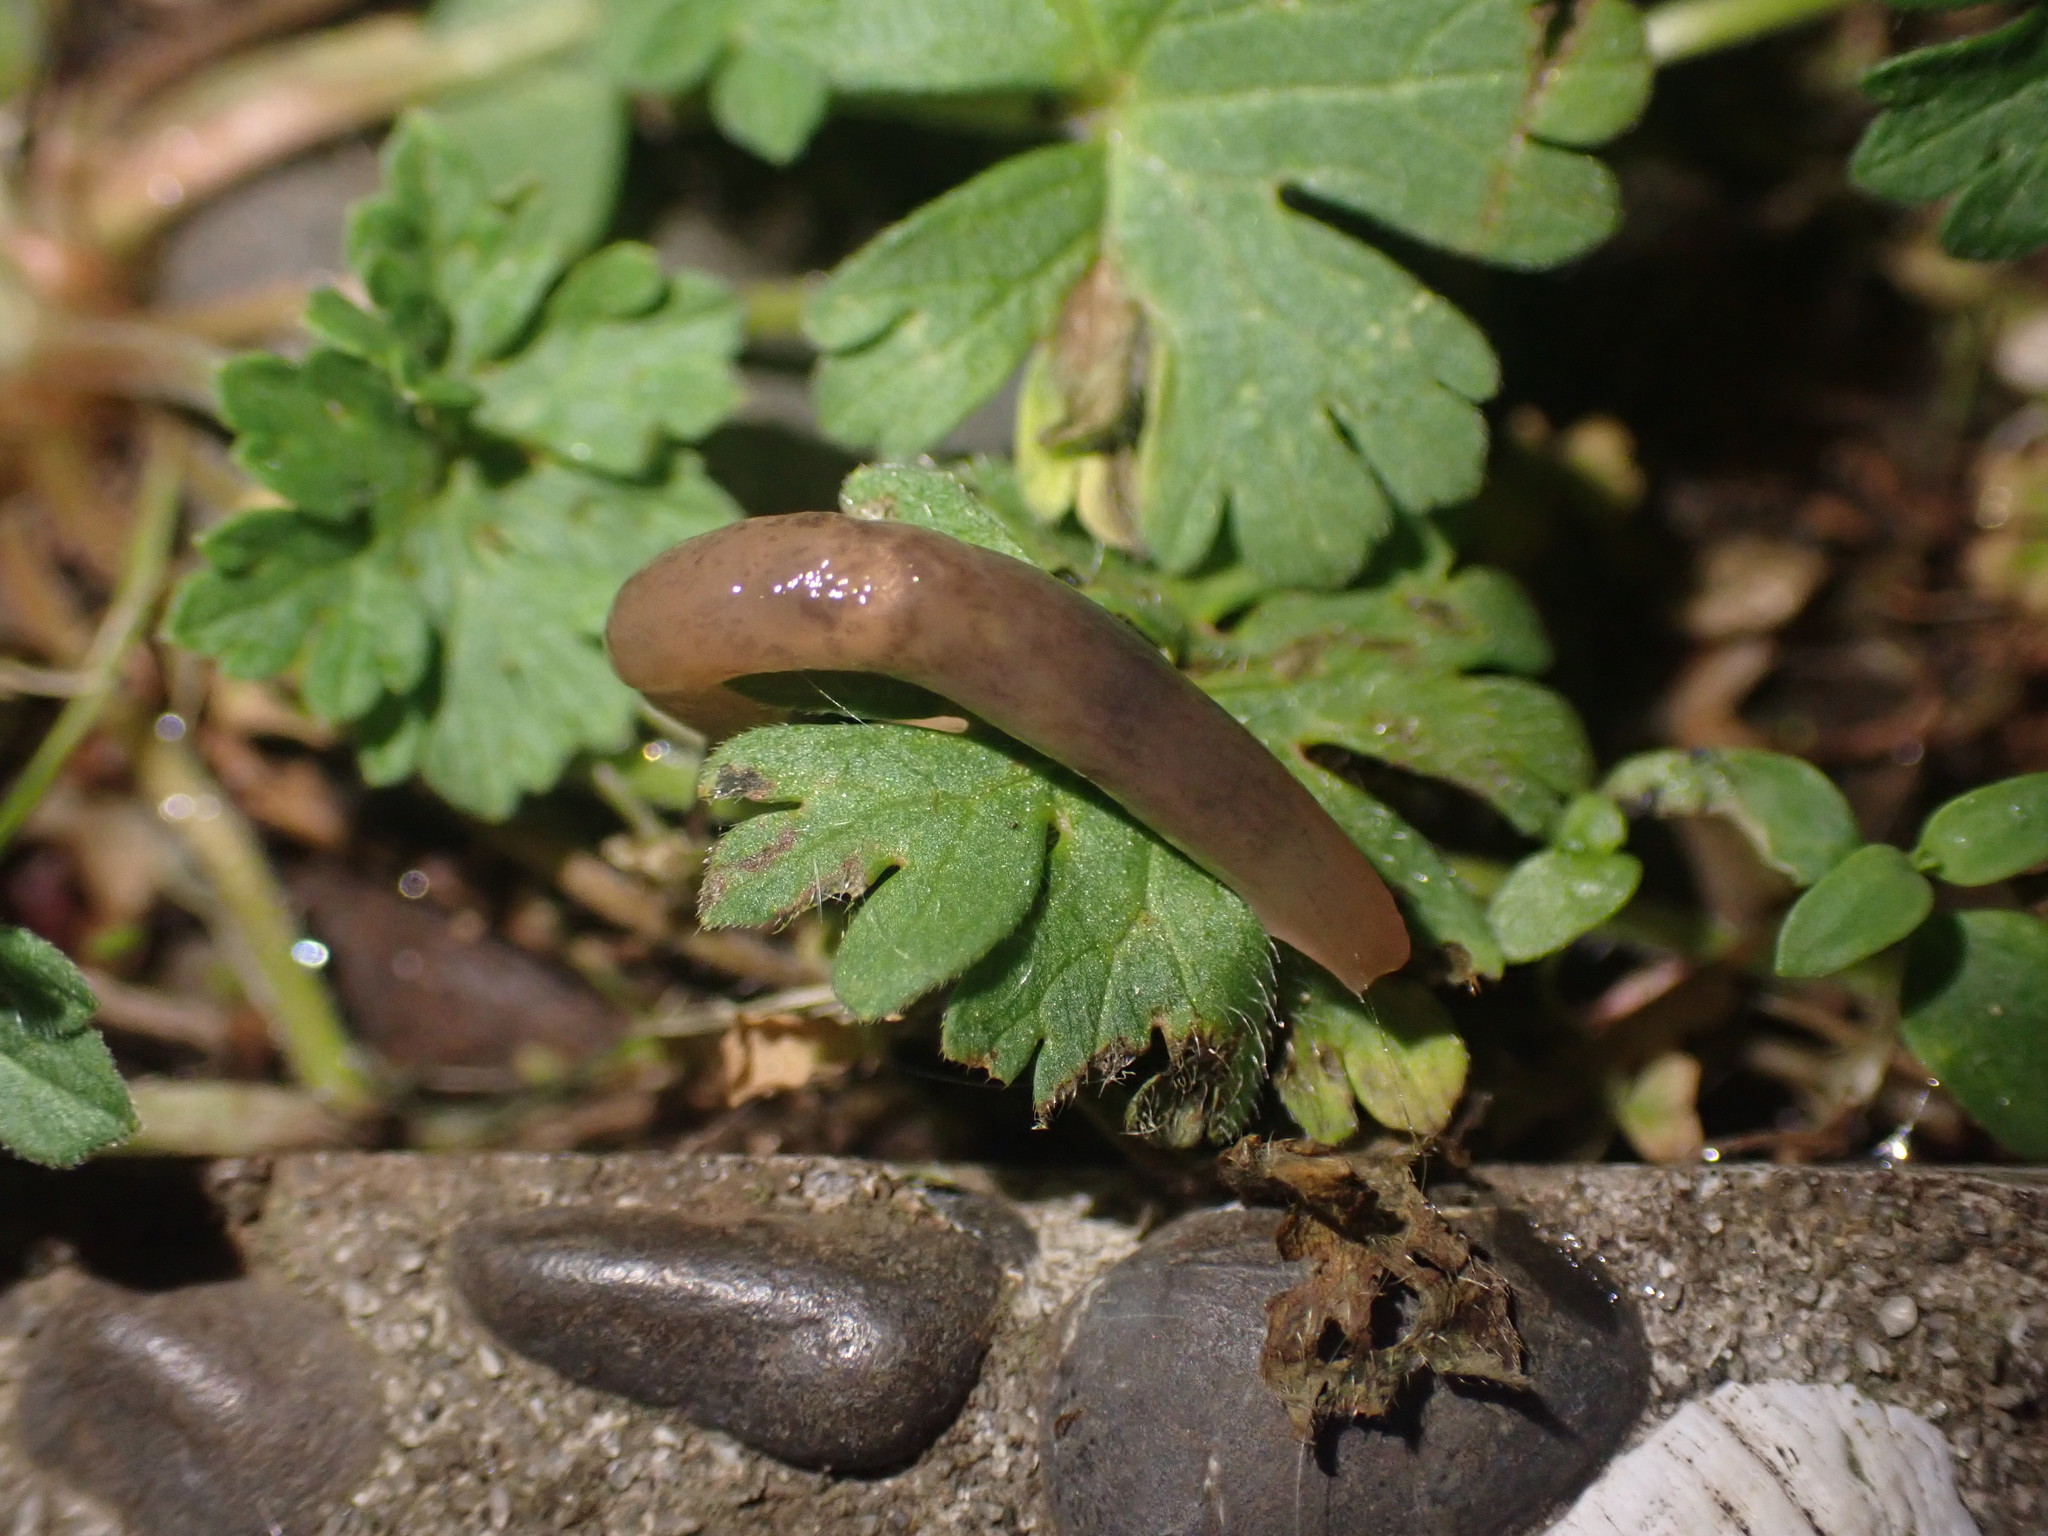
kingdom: Animalia
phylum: Mollusca
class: Gastropoda
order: Stylommatophora
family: Agriolimacidae
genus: Deroceras
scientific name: Deroceras invadens
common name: Caruana's slug
